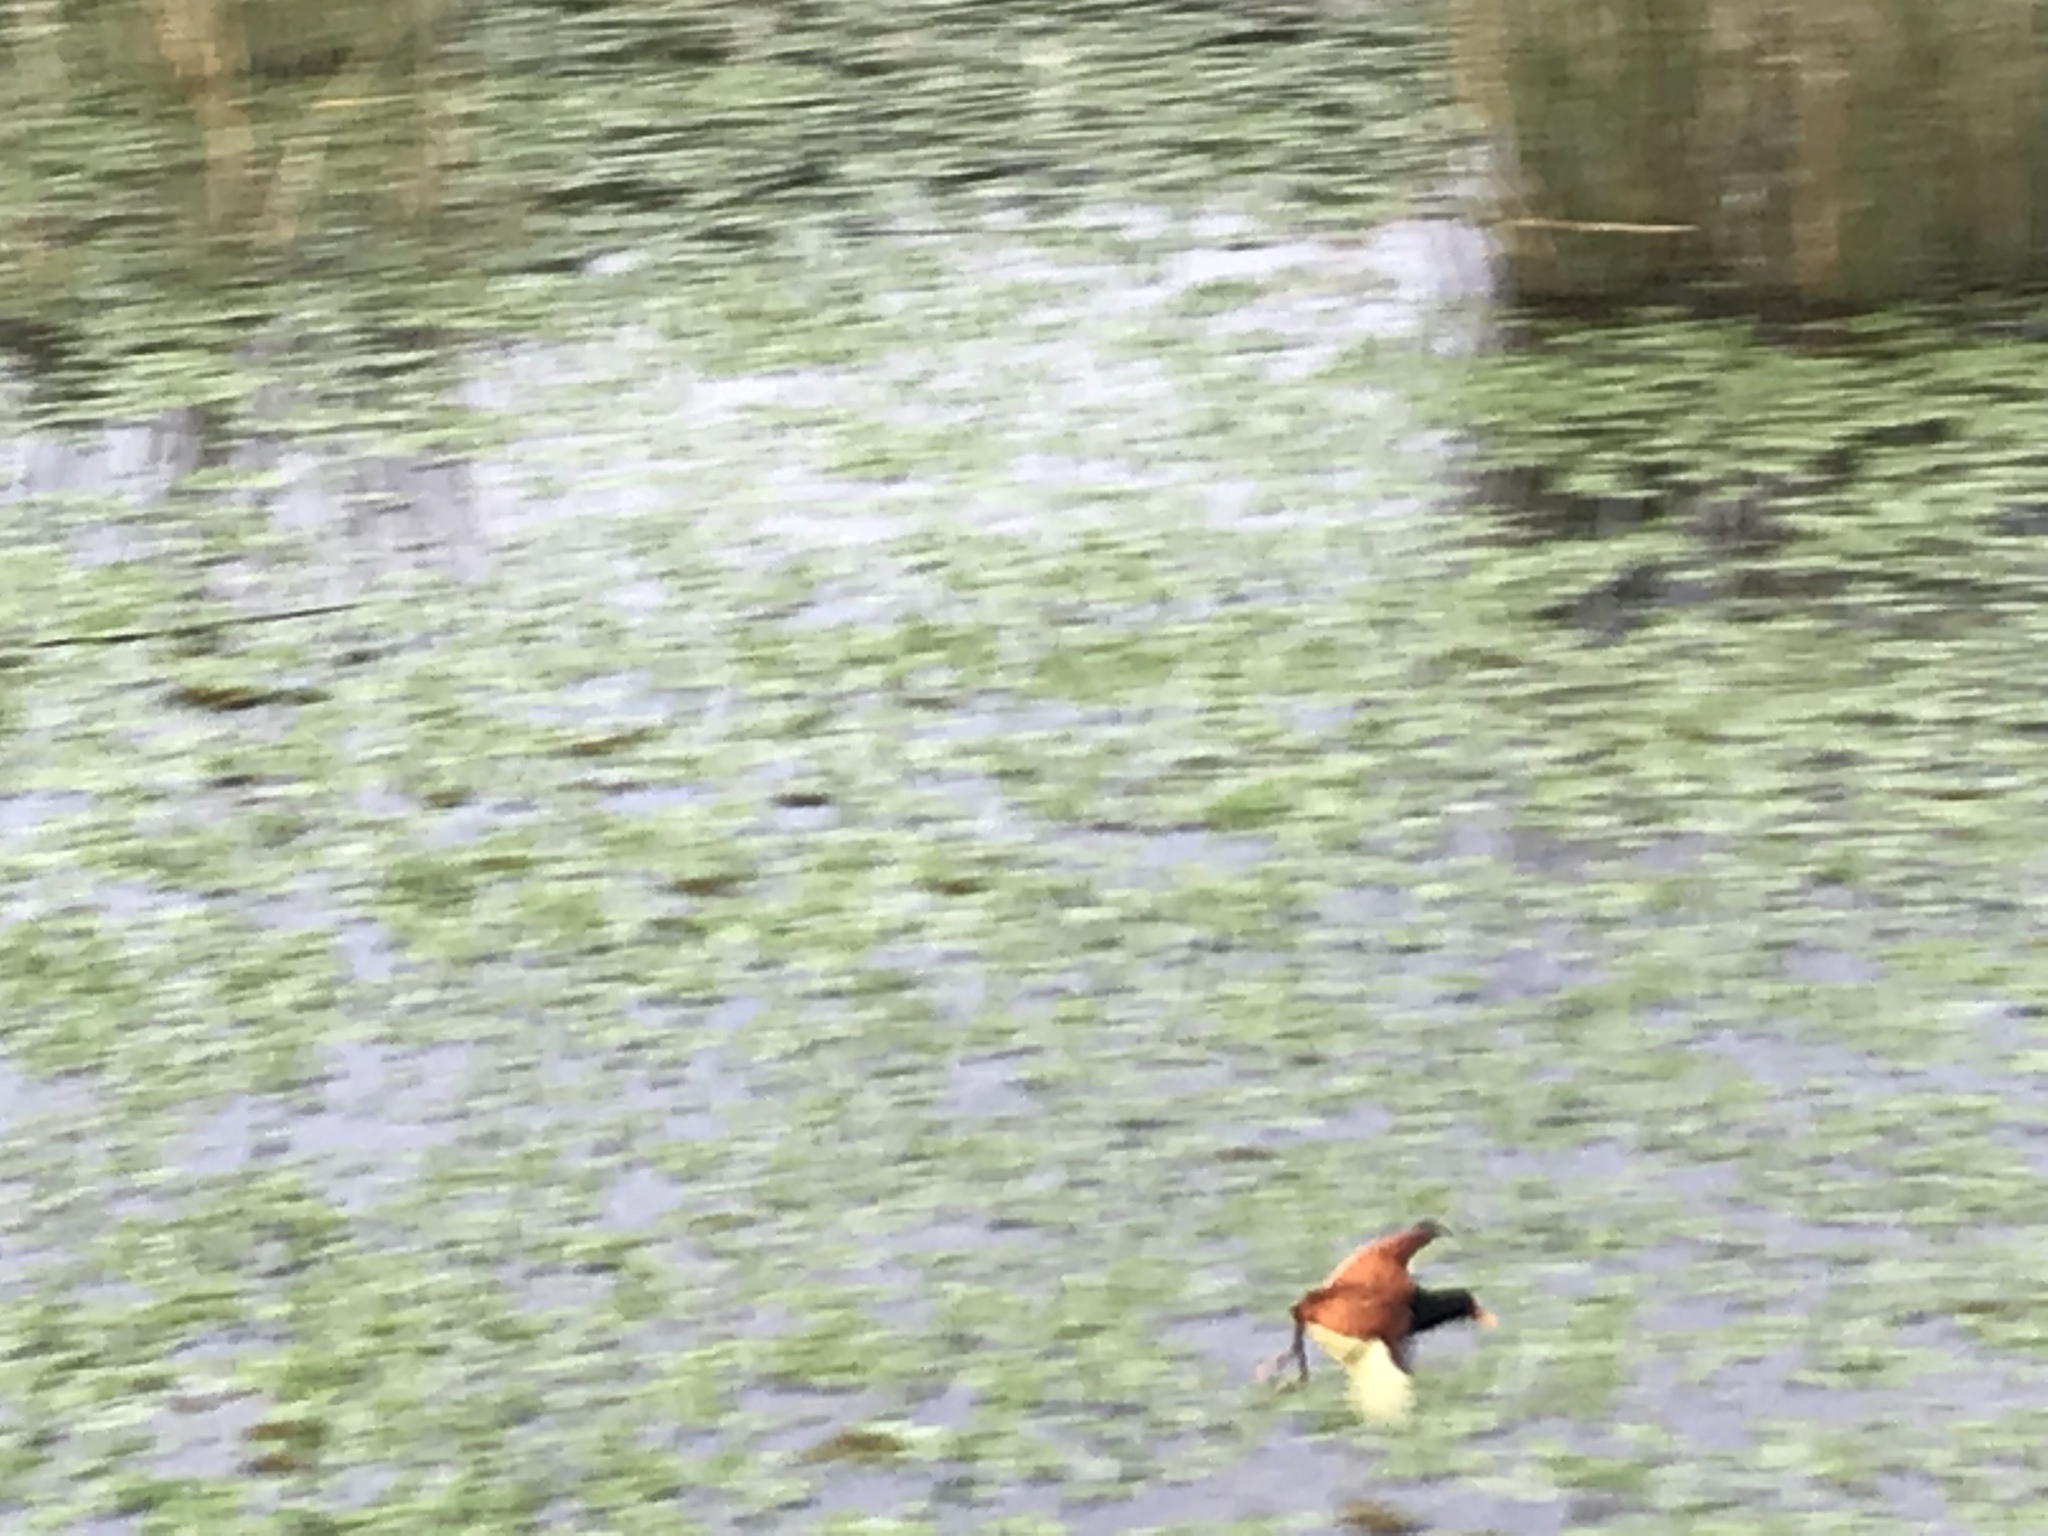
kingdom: Animalia
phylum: Chordata
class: Aves
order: Charadriiformes
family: Jacanidae
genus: Jacana
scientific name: Jacana jacana
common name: Wattled jacana
